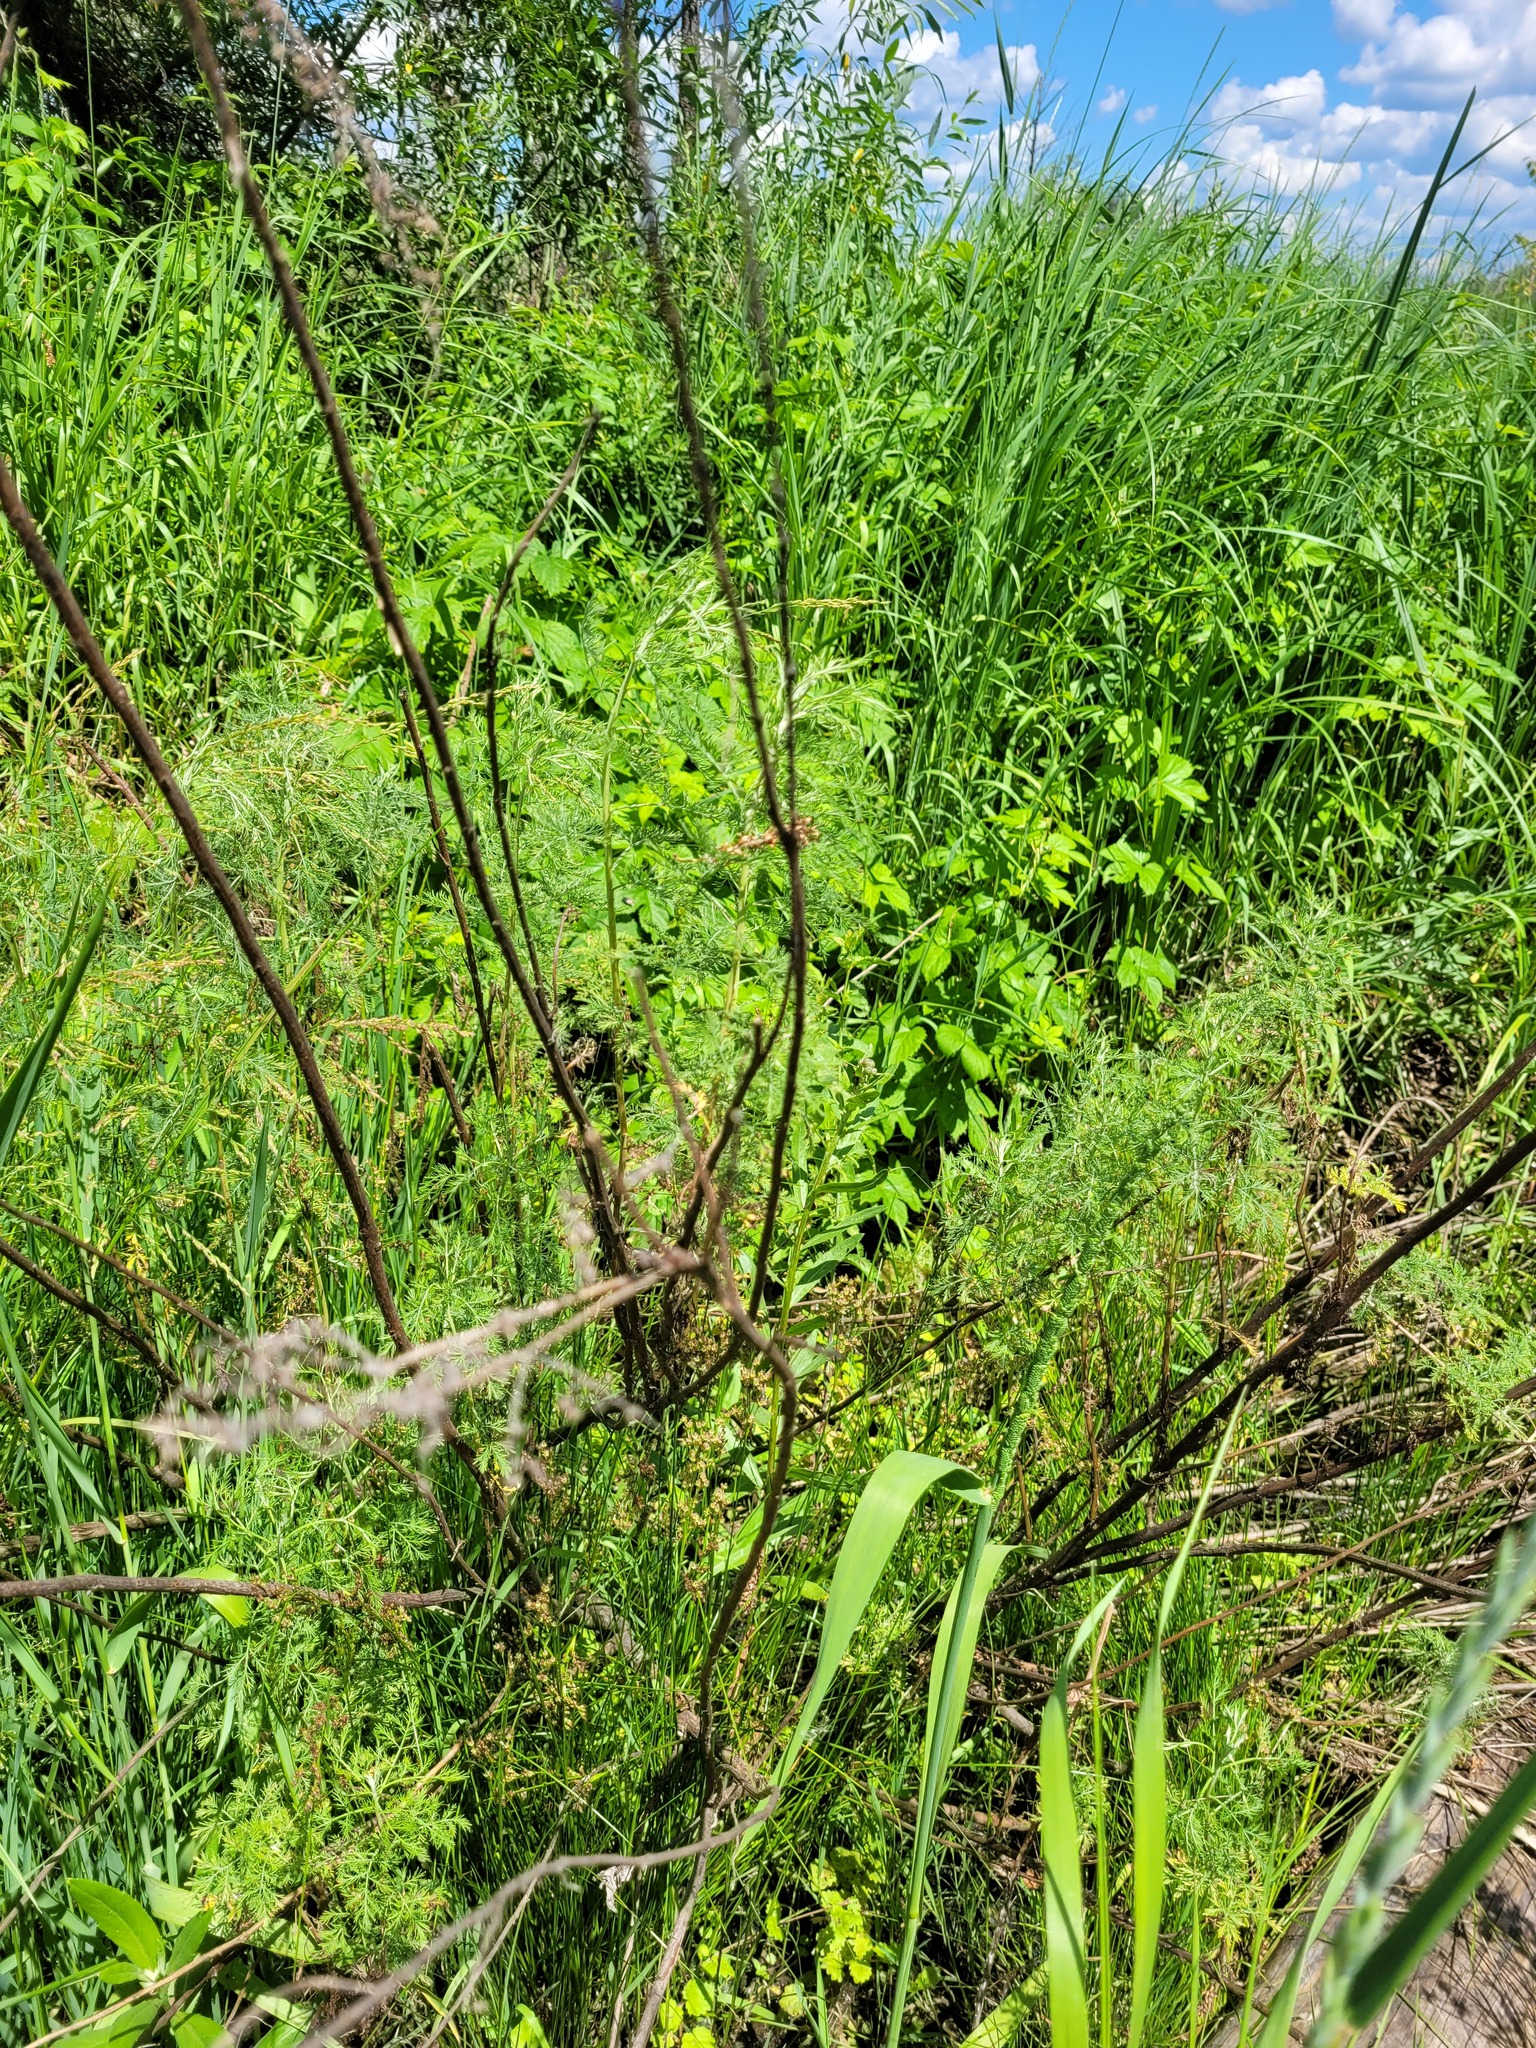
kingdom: Plantae
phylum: Tracheophyta
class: Magnoliopsida
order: Asterales
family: Asteraceae
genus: Artemisia
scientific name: Artemisia abrotanum
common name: Southernwood
